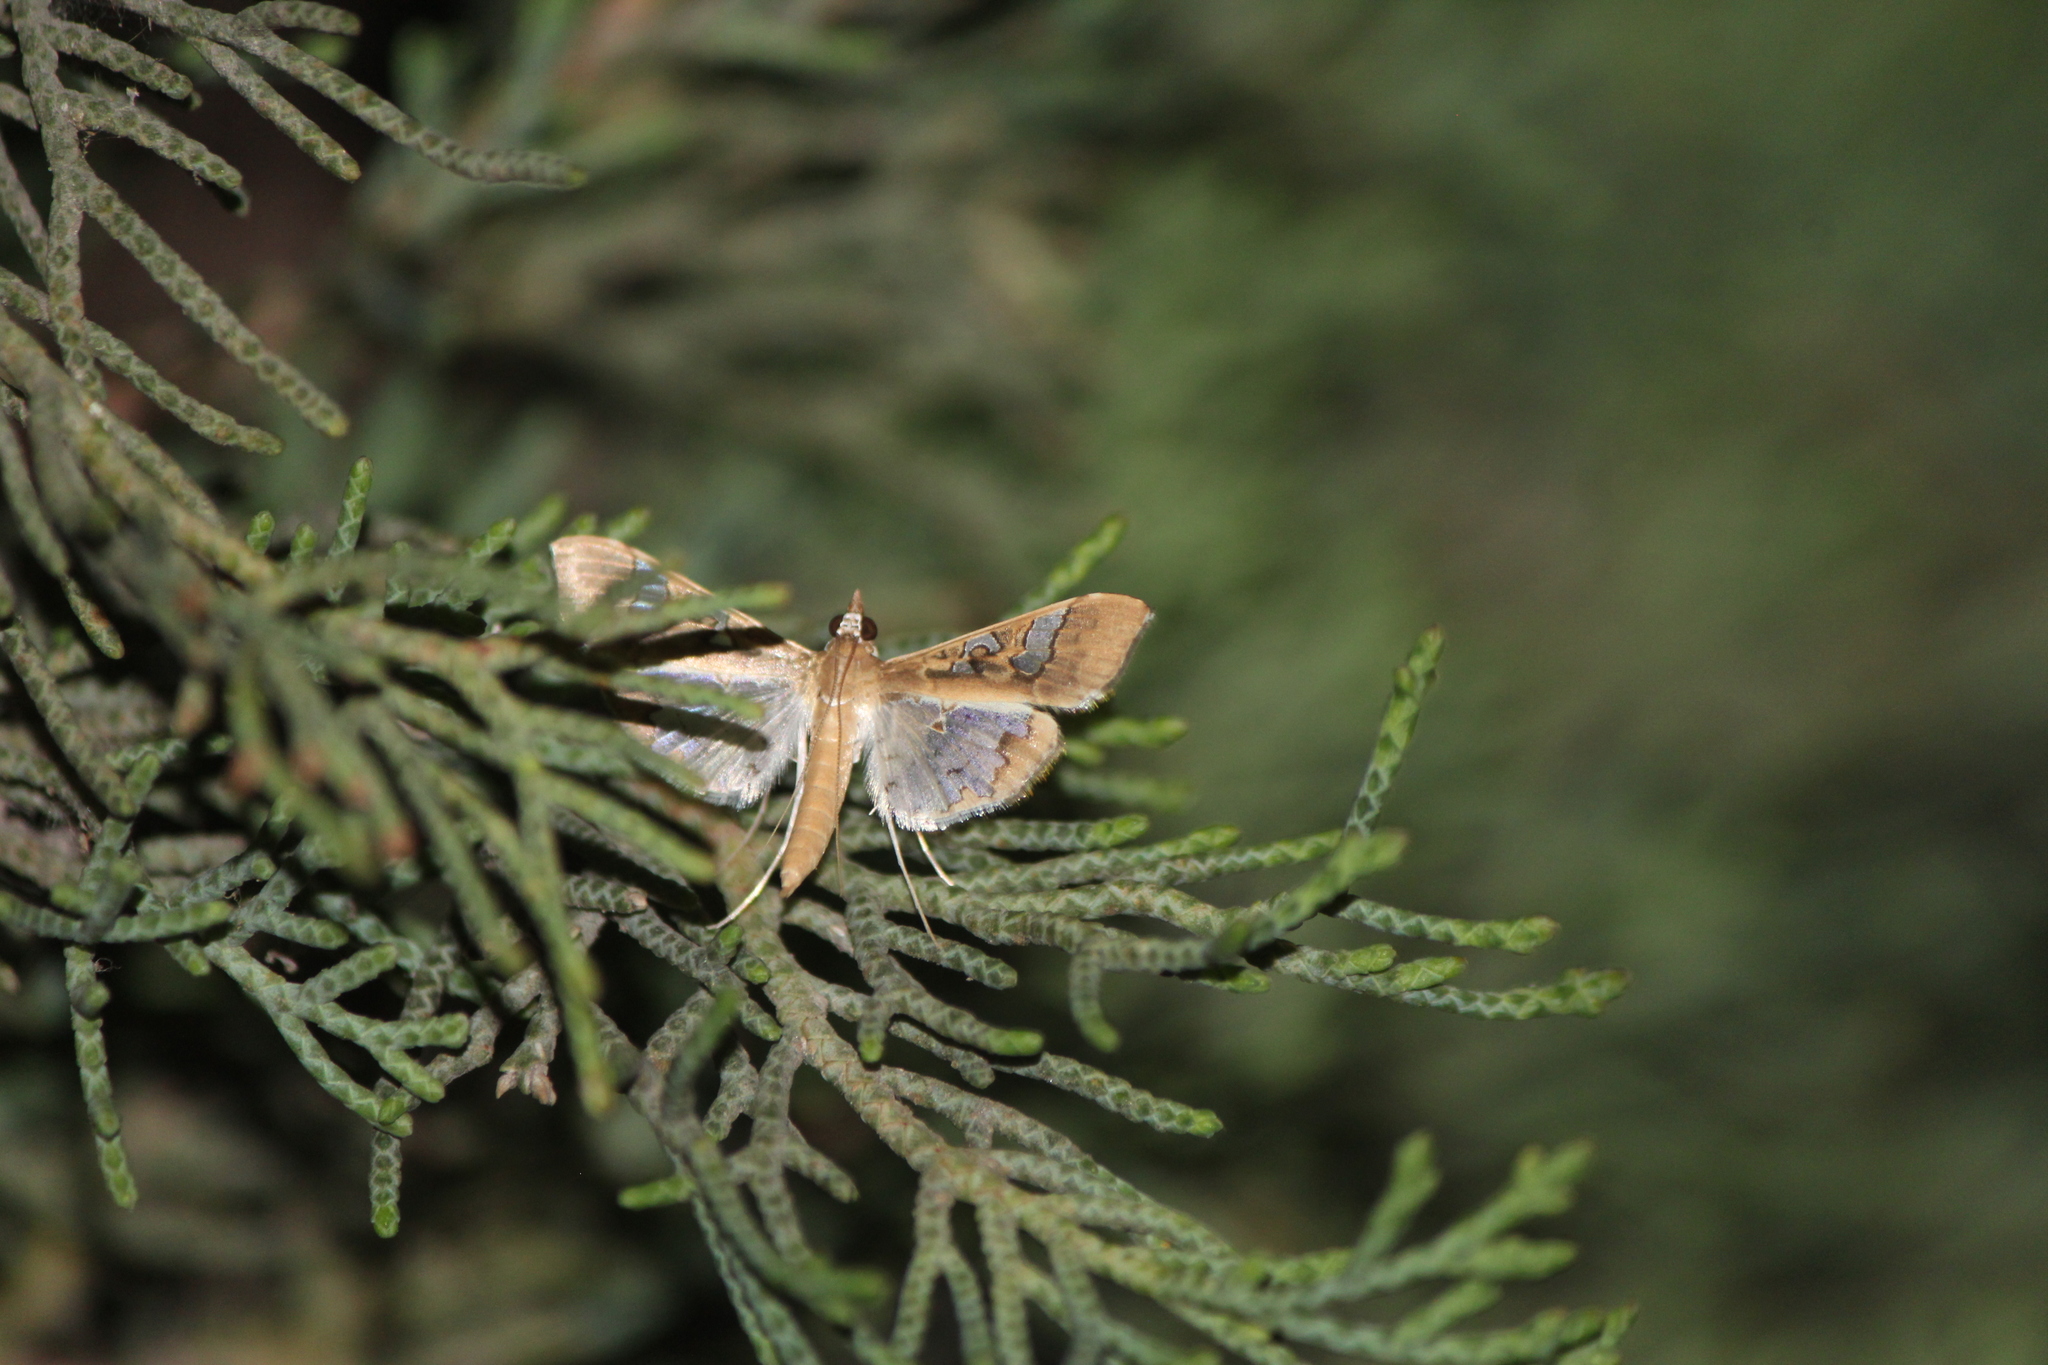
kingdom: Animalia
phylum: Arthropoda
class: Insecta
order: Lepidoptera
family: Crambidae
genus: Maruca
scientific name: Maruca vitrata
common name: Maruca pod borer
